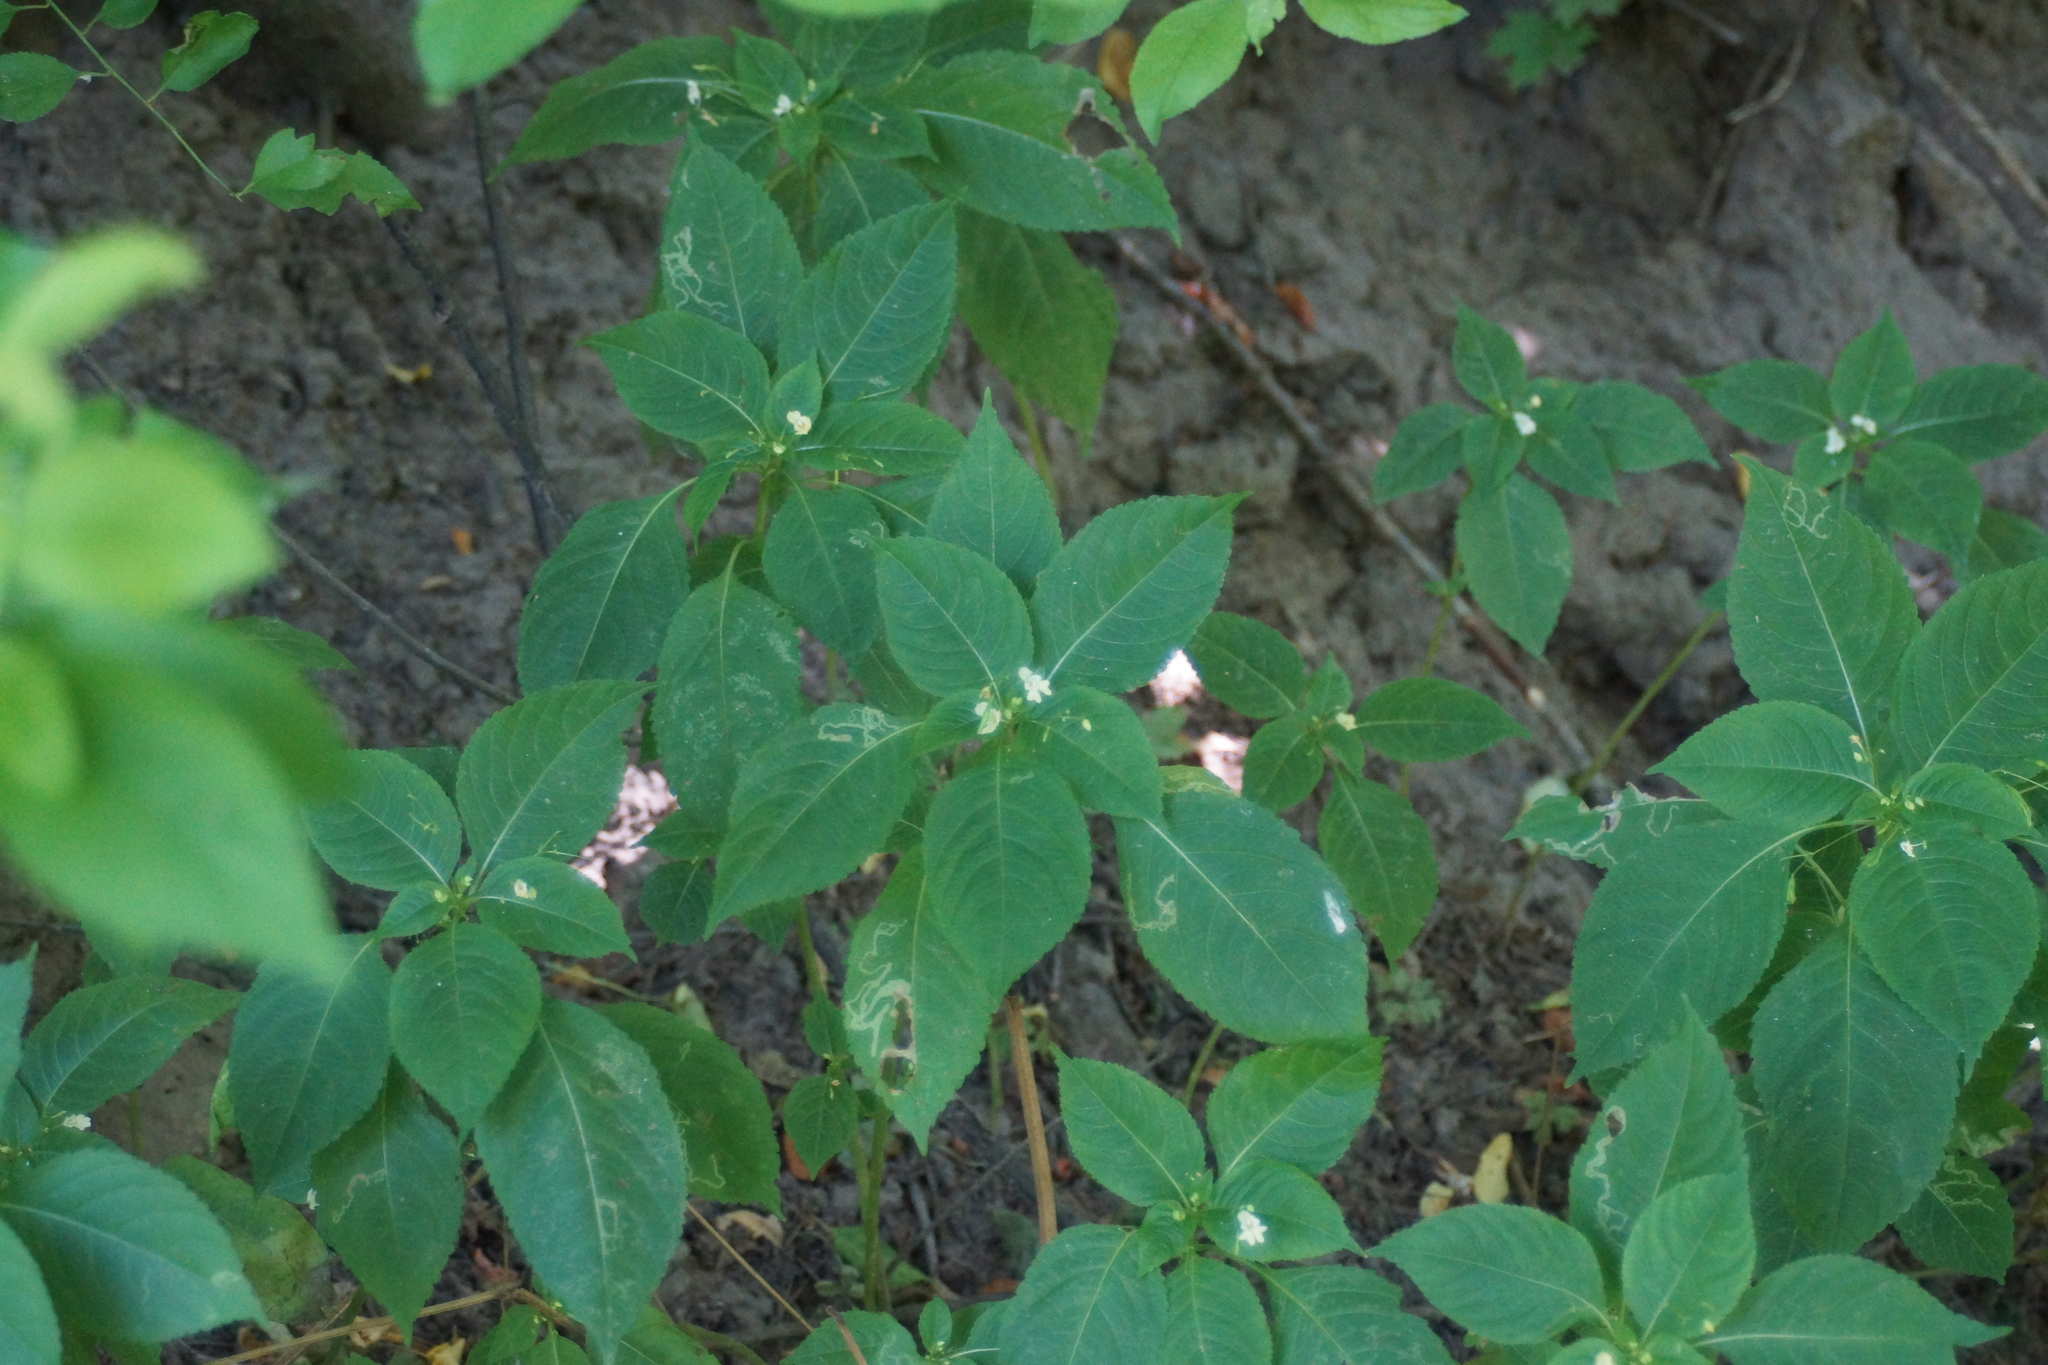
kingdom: Plantae
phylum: Tracheophyta
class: Magnoliopsida
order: Ericales
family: Balsaminaceae
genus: Impatiens
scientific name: Impatiens parviflora
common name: Small balsam
